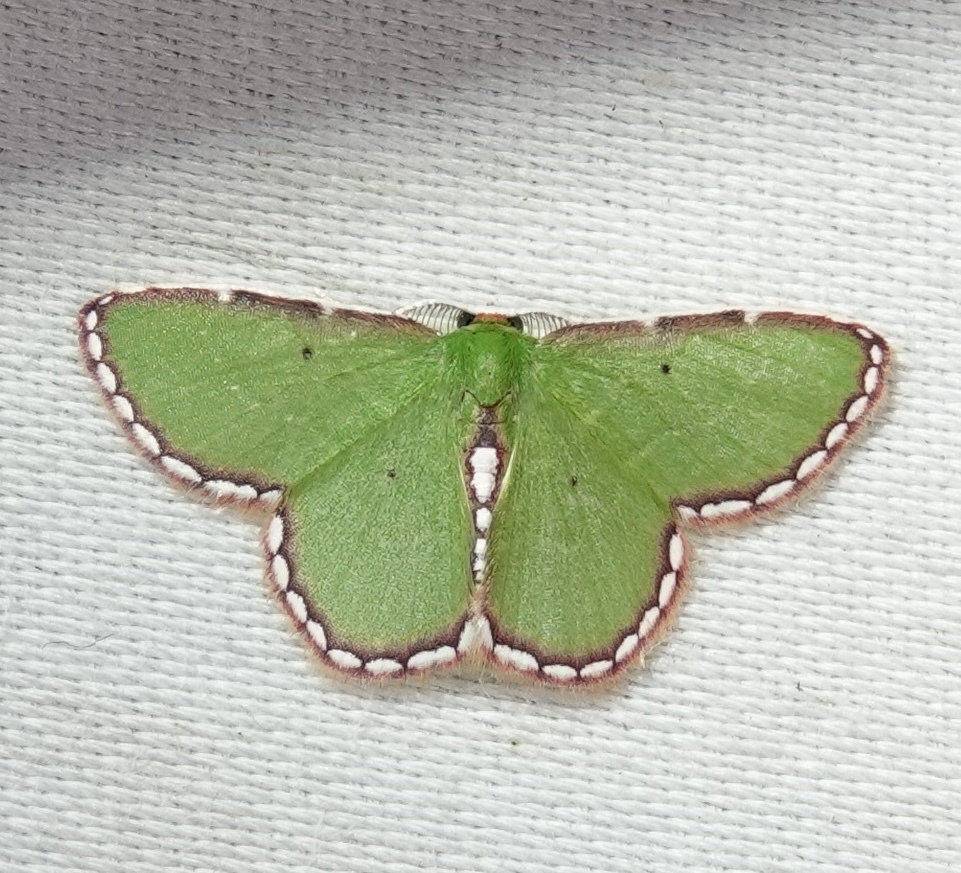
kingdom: Animalia
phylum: Arthropoda
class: Insecta
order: Lepidoptera
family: Geometridae
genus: Synchlora
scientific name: Synchlora pulchrifimbria
